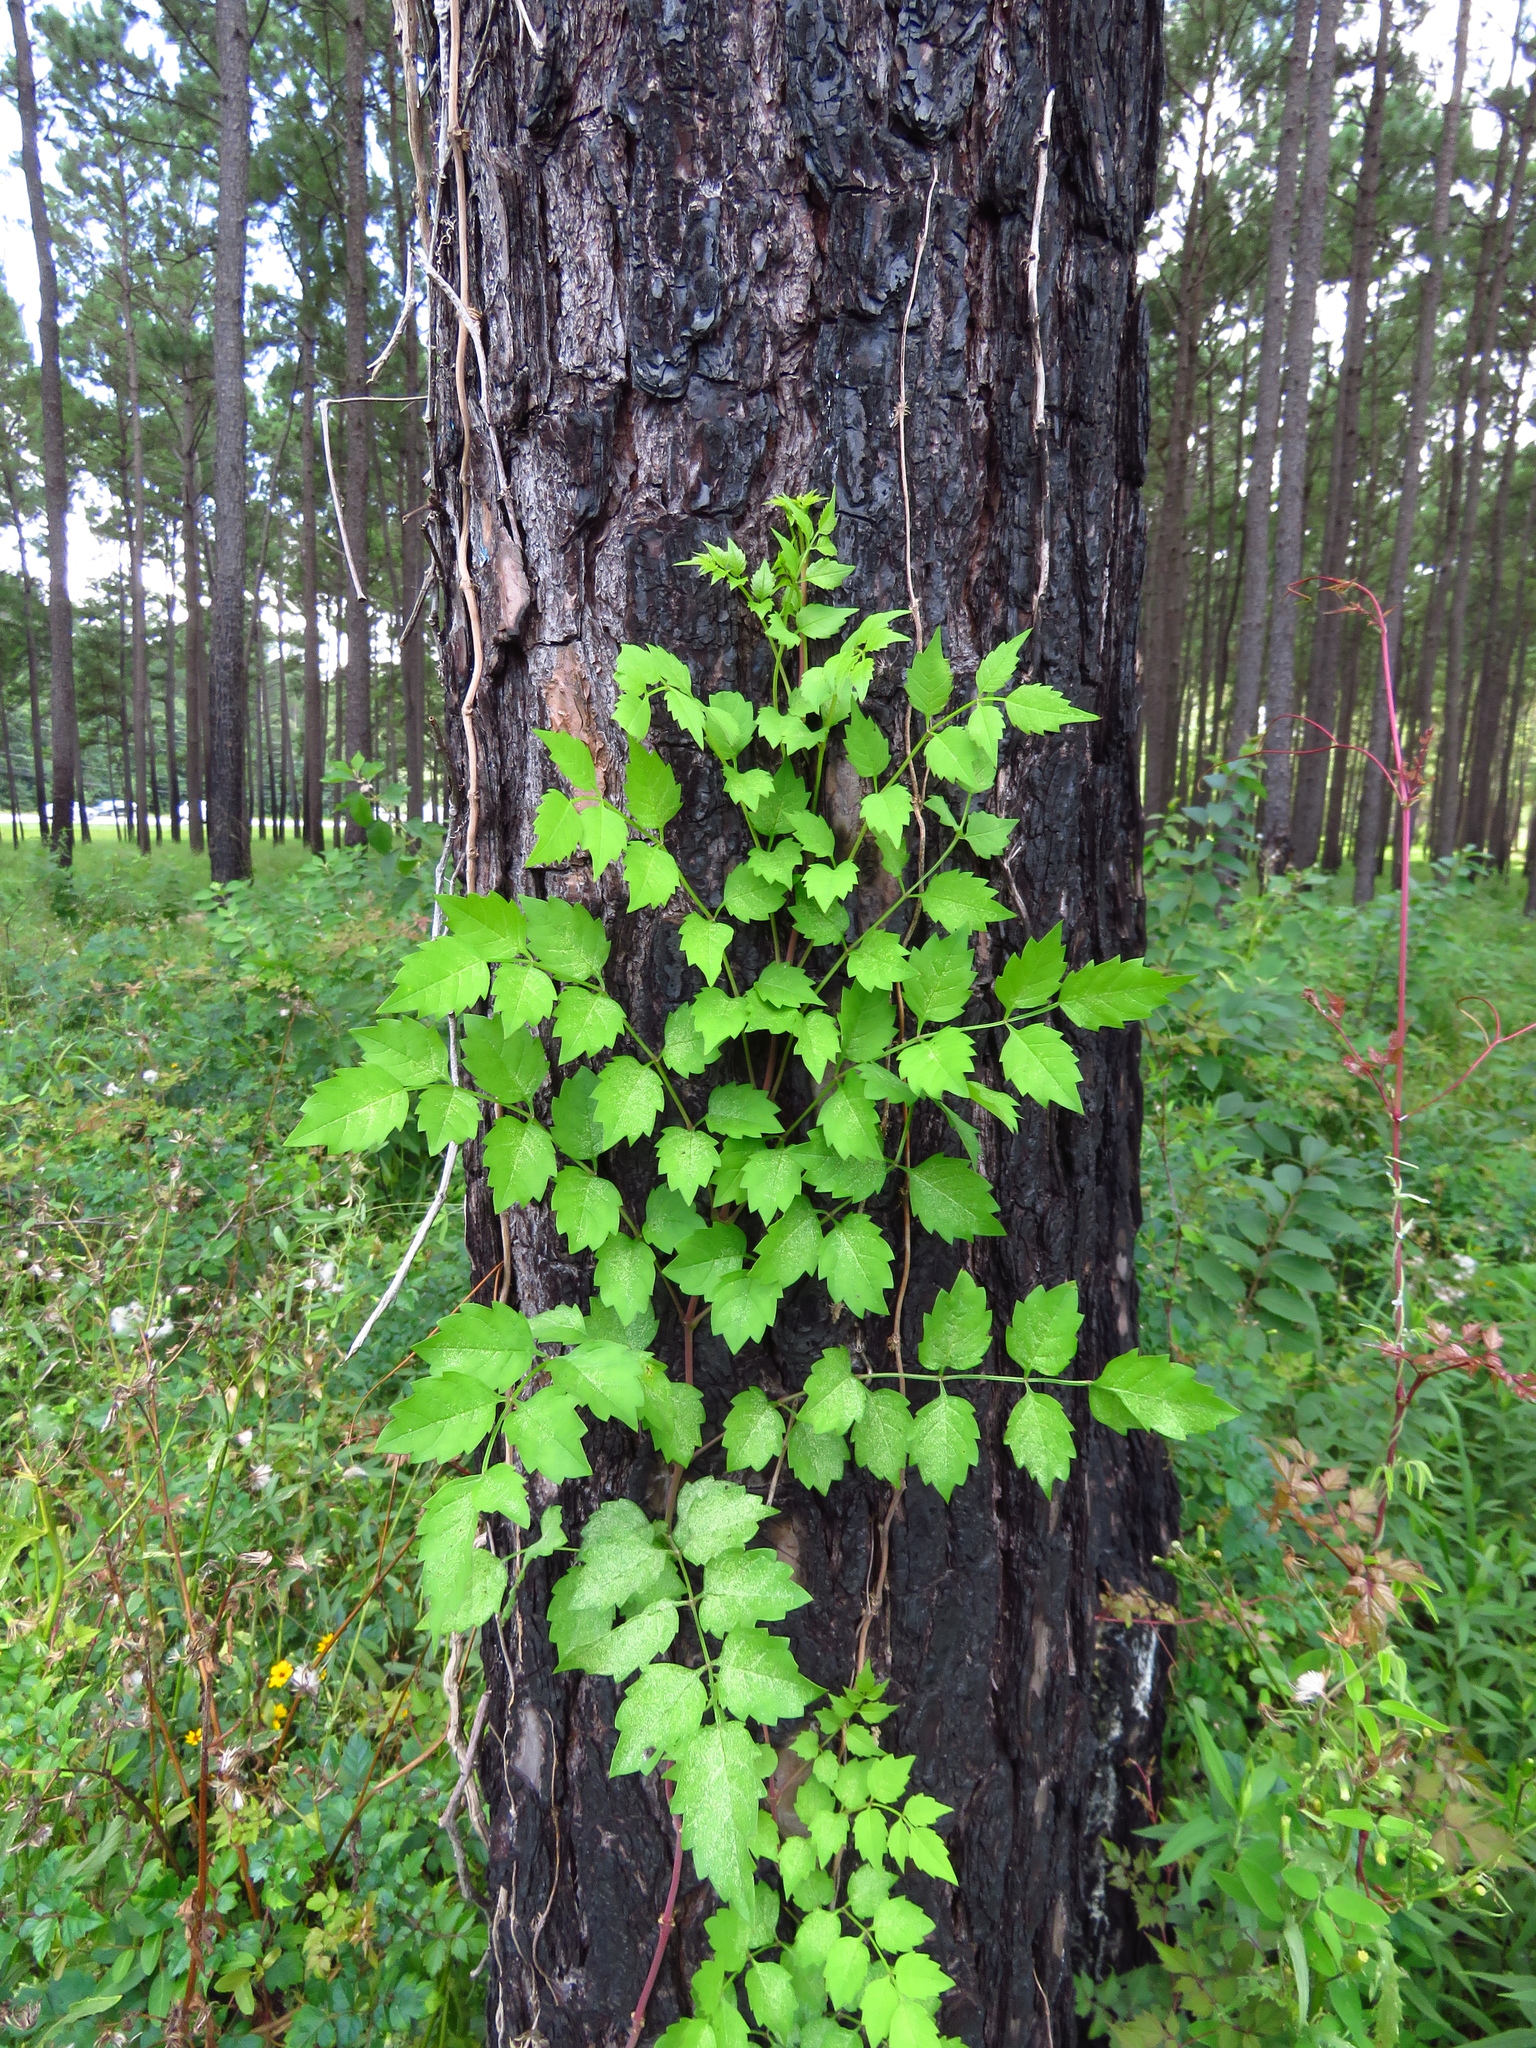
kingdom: Plantae
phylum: Tracheophyta
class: Magnoliopsida
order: Lamiales
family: Bignoniaceae
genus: Campsis
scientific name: Campsis radicans
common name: Trumpet-creeper
